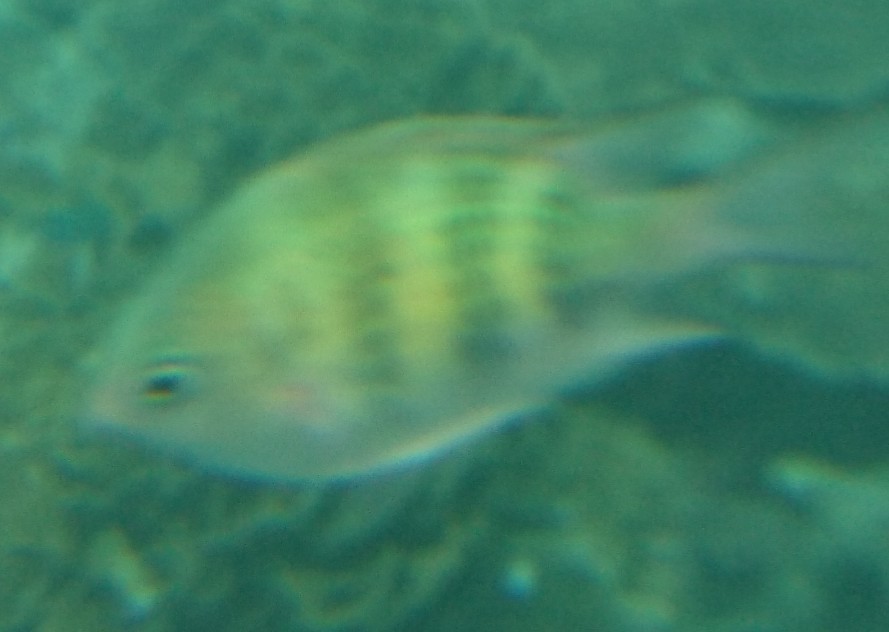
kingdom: Animalia
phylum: Chordata
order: Perciformes
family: Pomacentridae
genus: Amblyglyphidodon
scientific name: Amblyglyphidodon curacao
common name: Staghorn damsel
